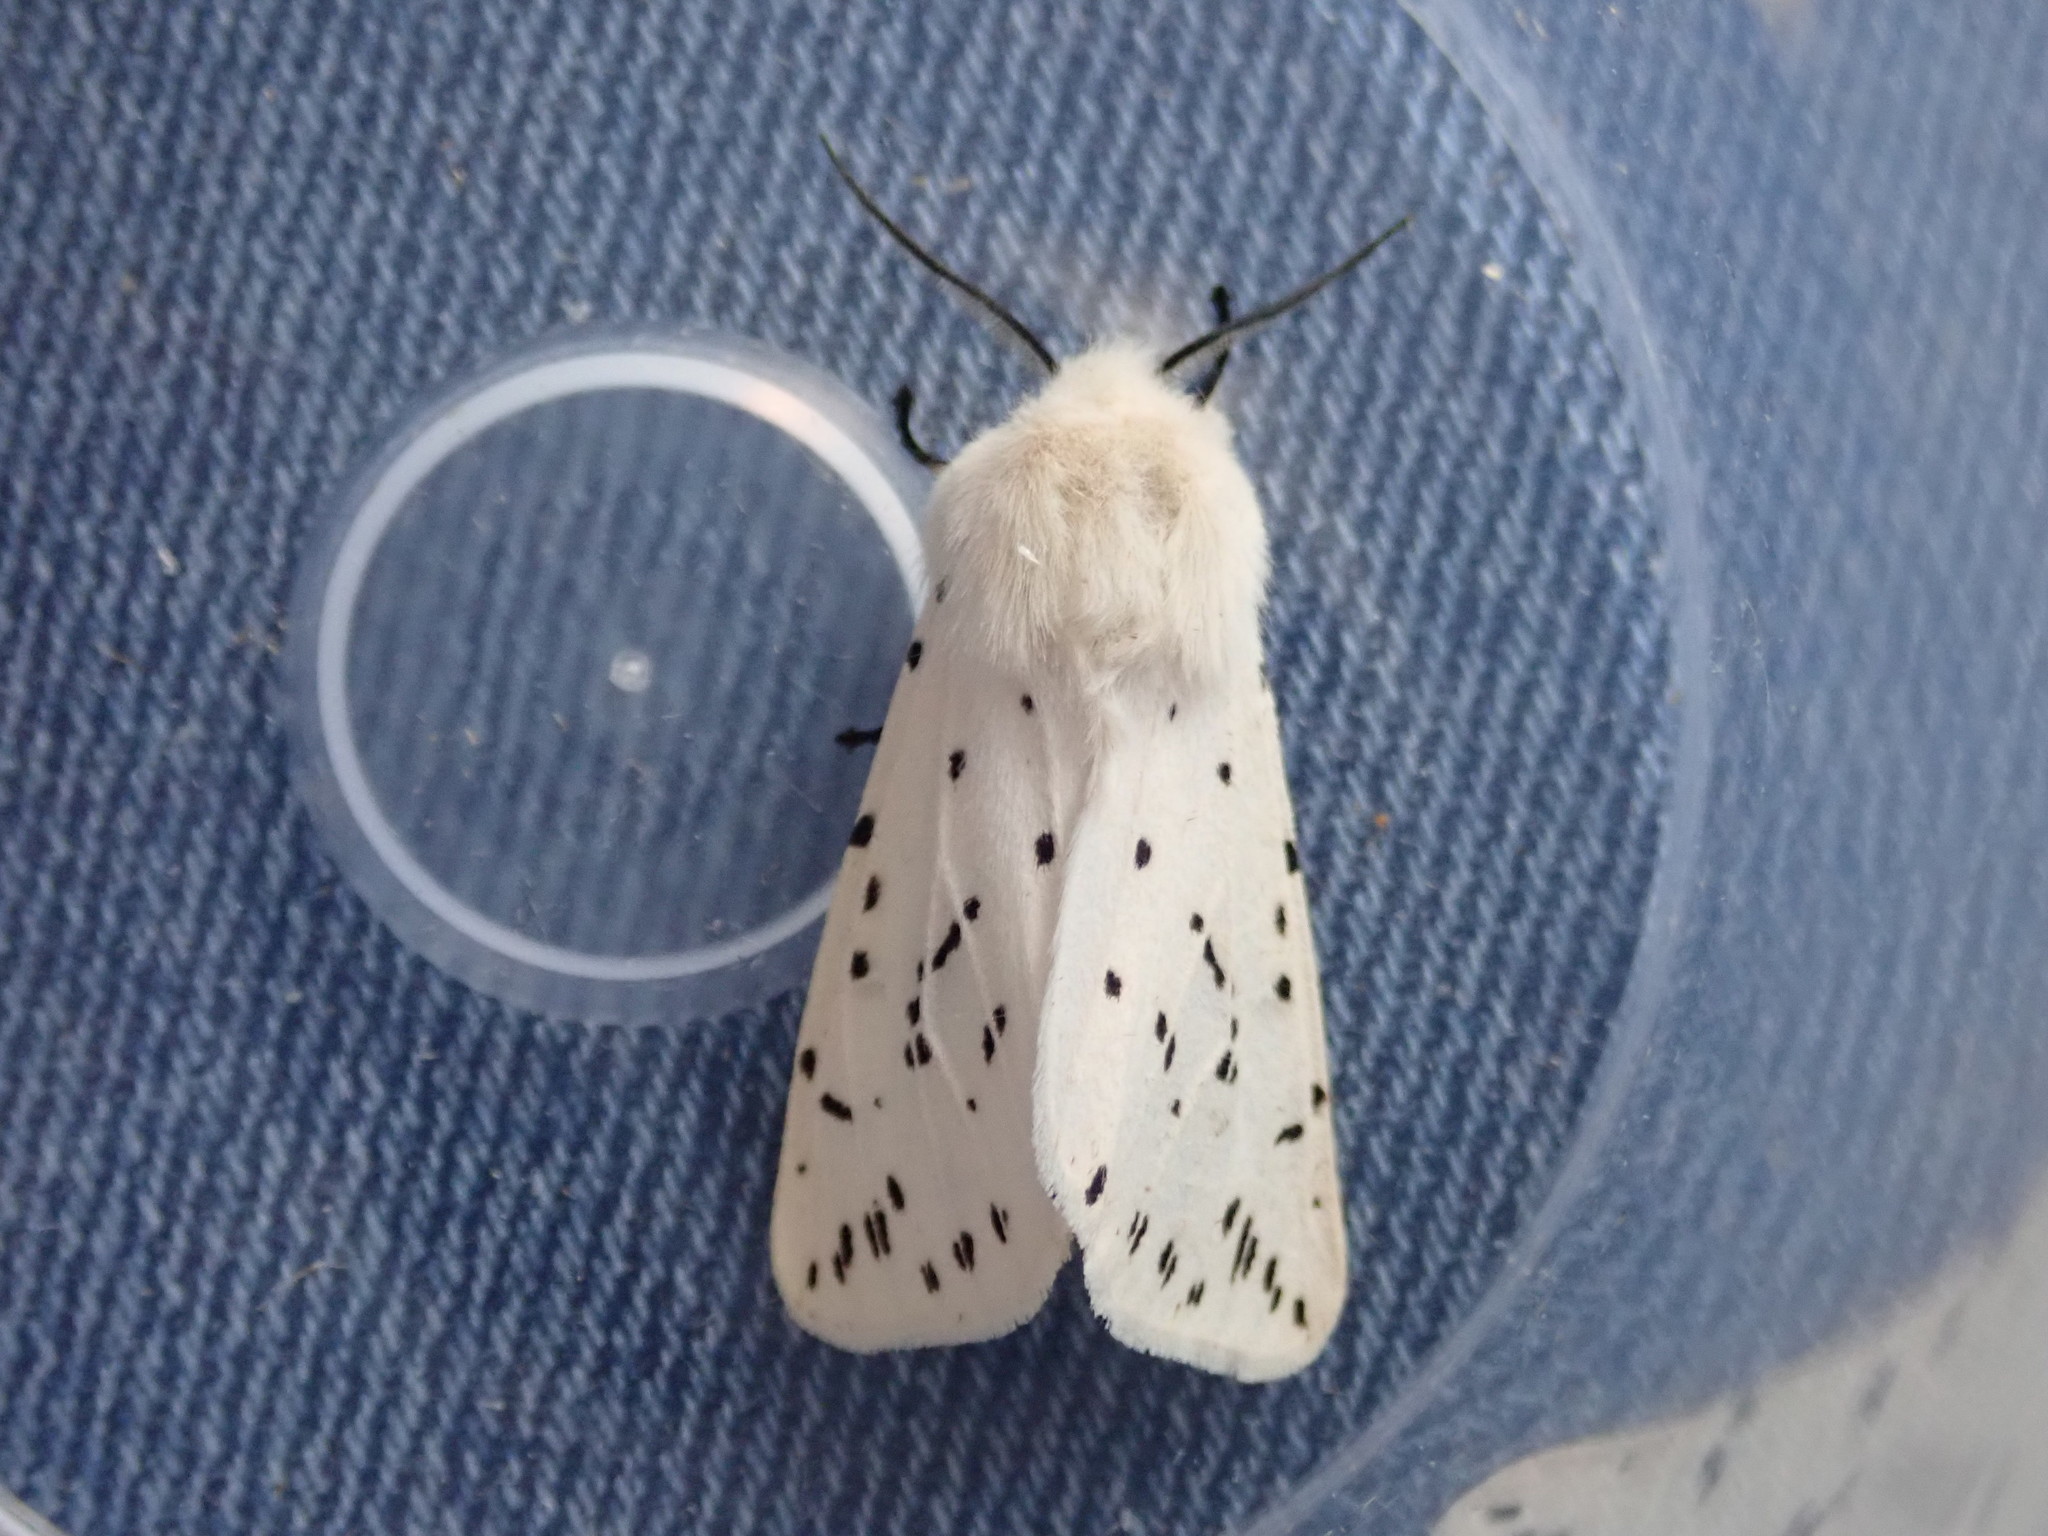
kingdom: Animalia
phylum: Arthropoda
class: Insecta
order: Lepidoptera
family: Erebidae
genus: Spilosoma
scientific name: Spilosoma lubricipeda
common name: White ermine
